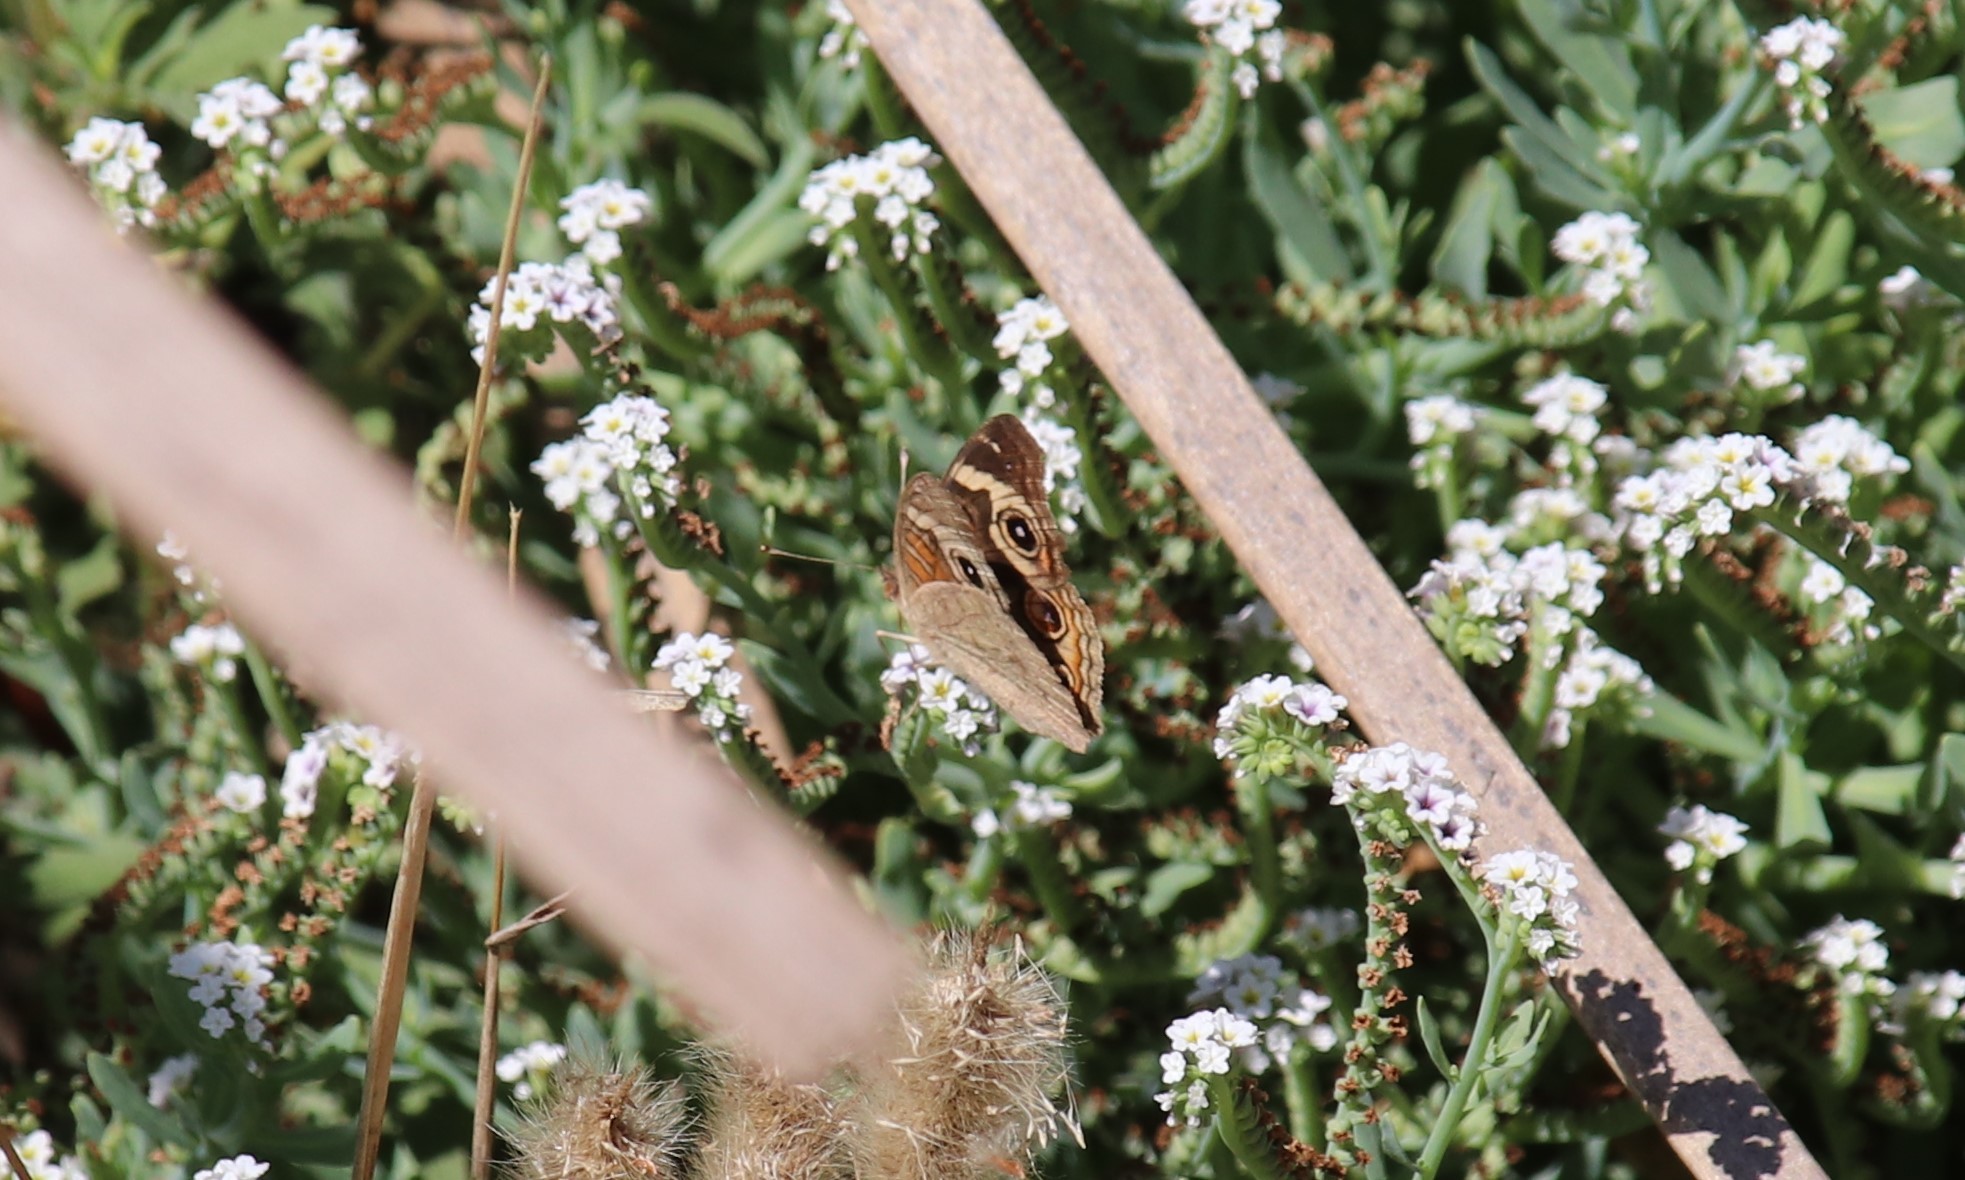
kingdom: Animalia
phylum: Arthropoda
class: Insecta
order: Lepidoptera
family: Nymphalidae
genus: Junonia
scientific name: Junonia grisea
